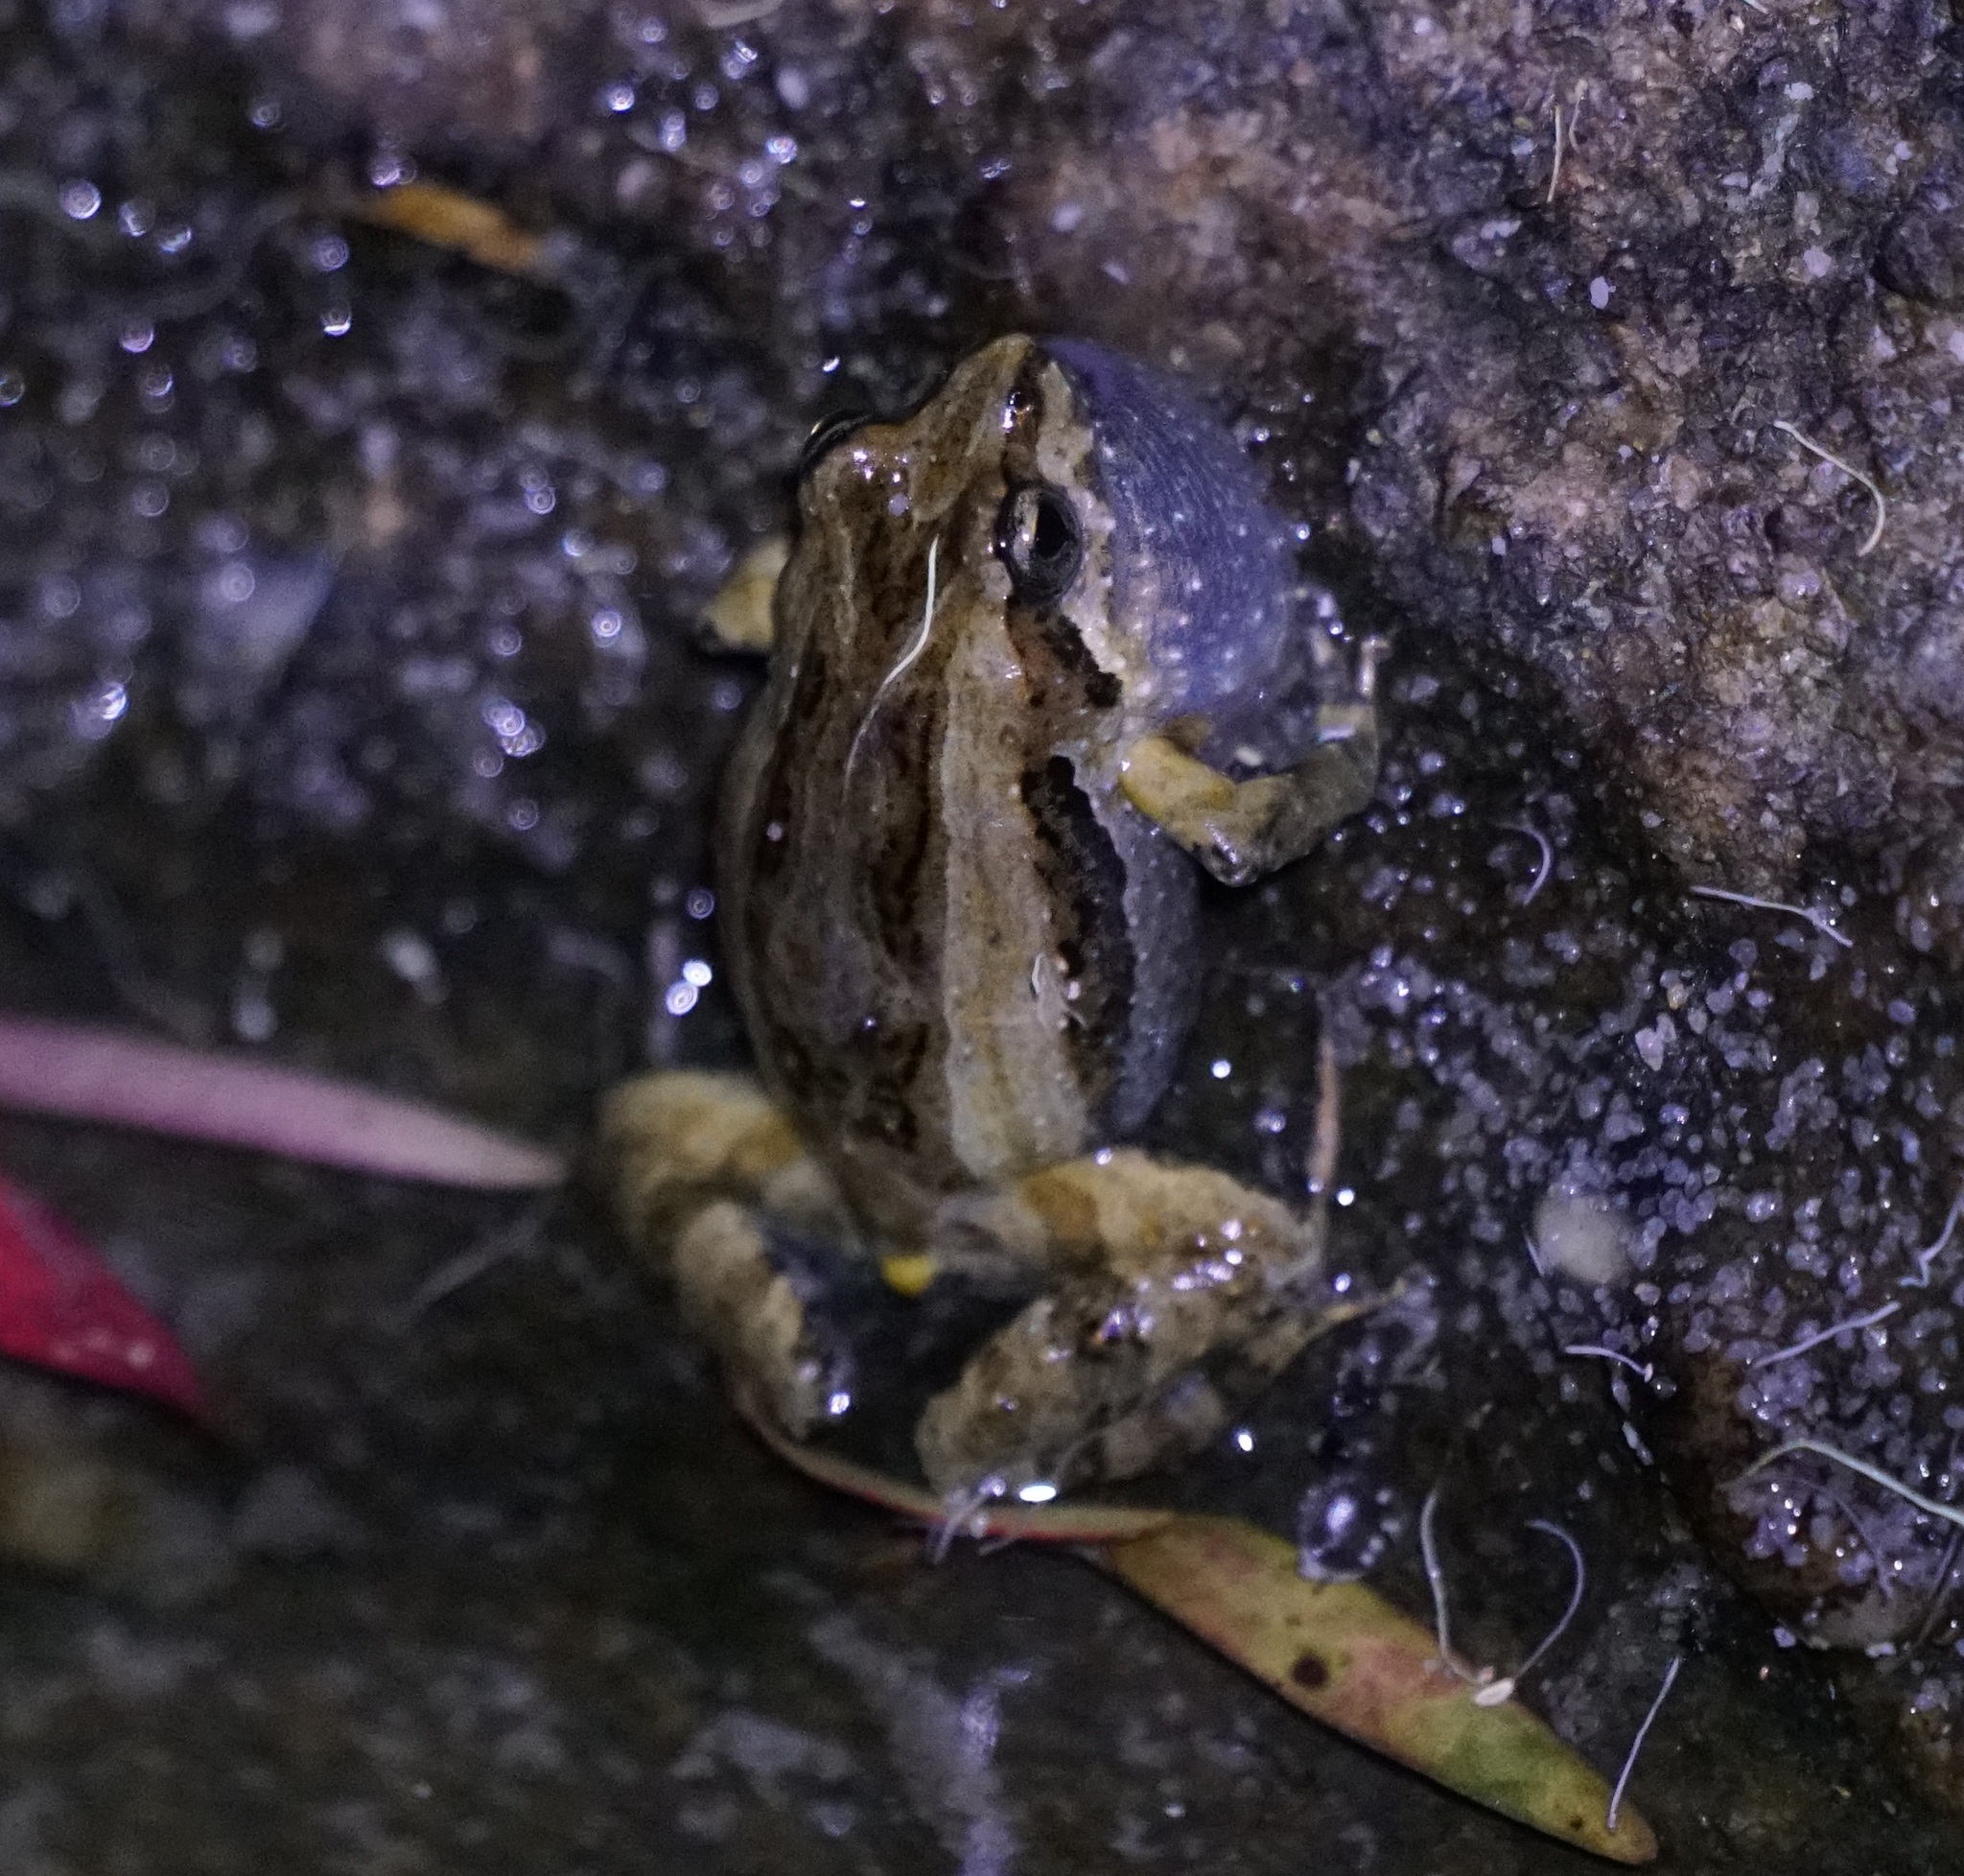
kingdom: Animalia
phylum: Chordata
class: Amphibia
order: Anura
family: Myobatrachidae
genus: Crinia
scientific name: Crinia signifera
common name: Brown froglet
